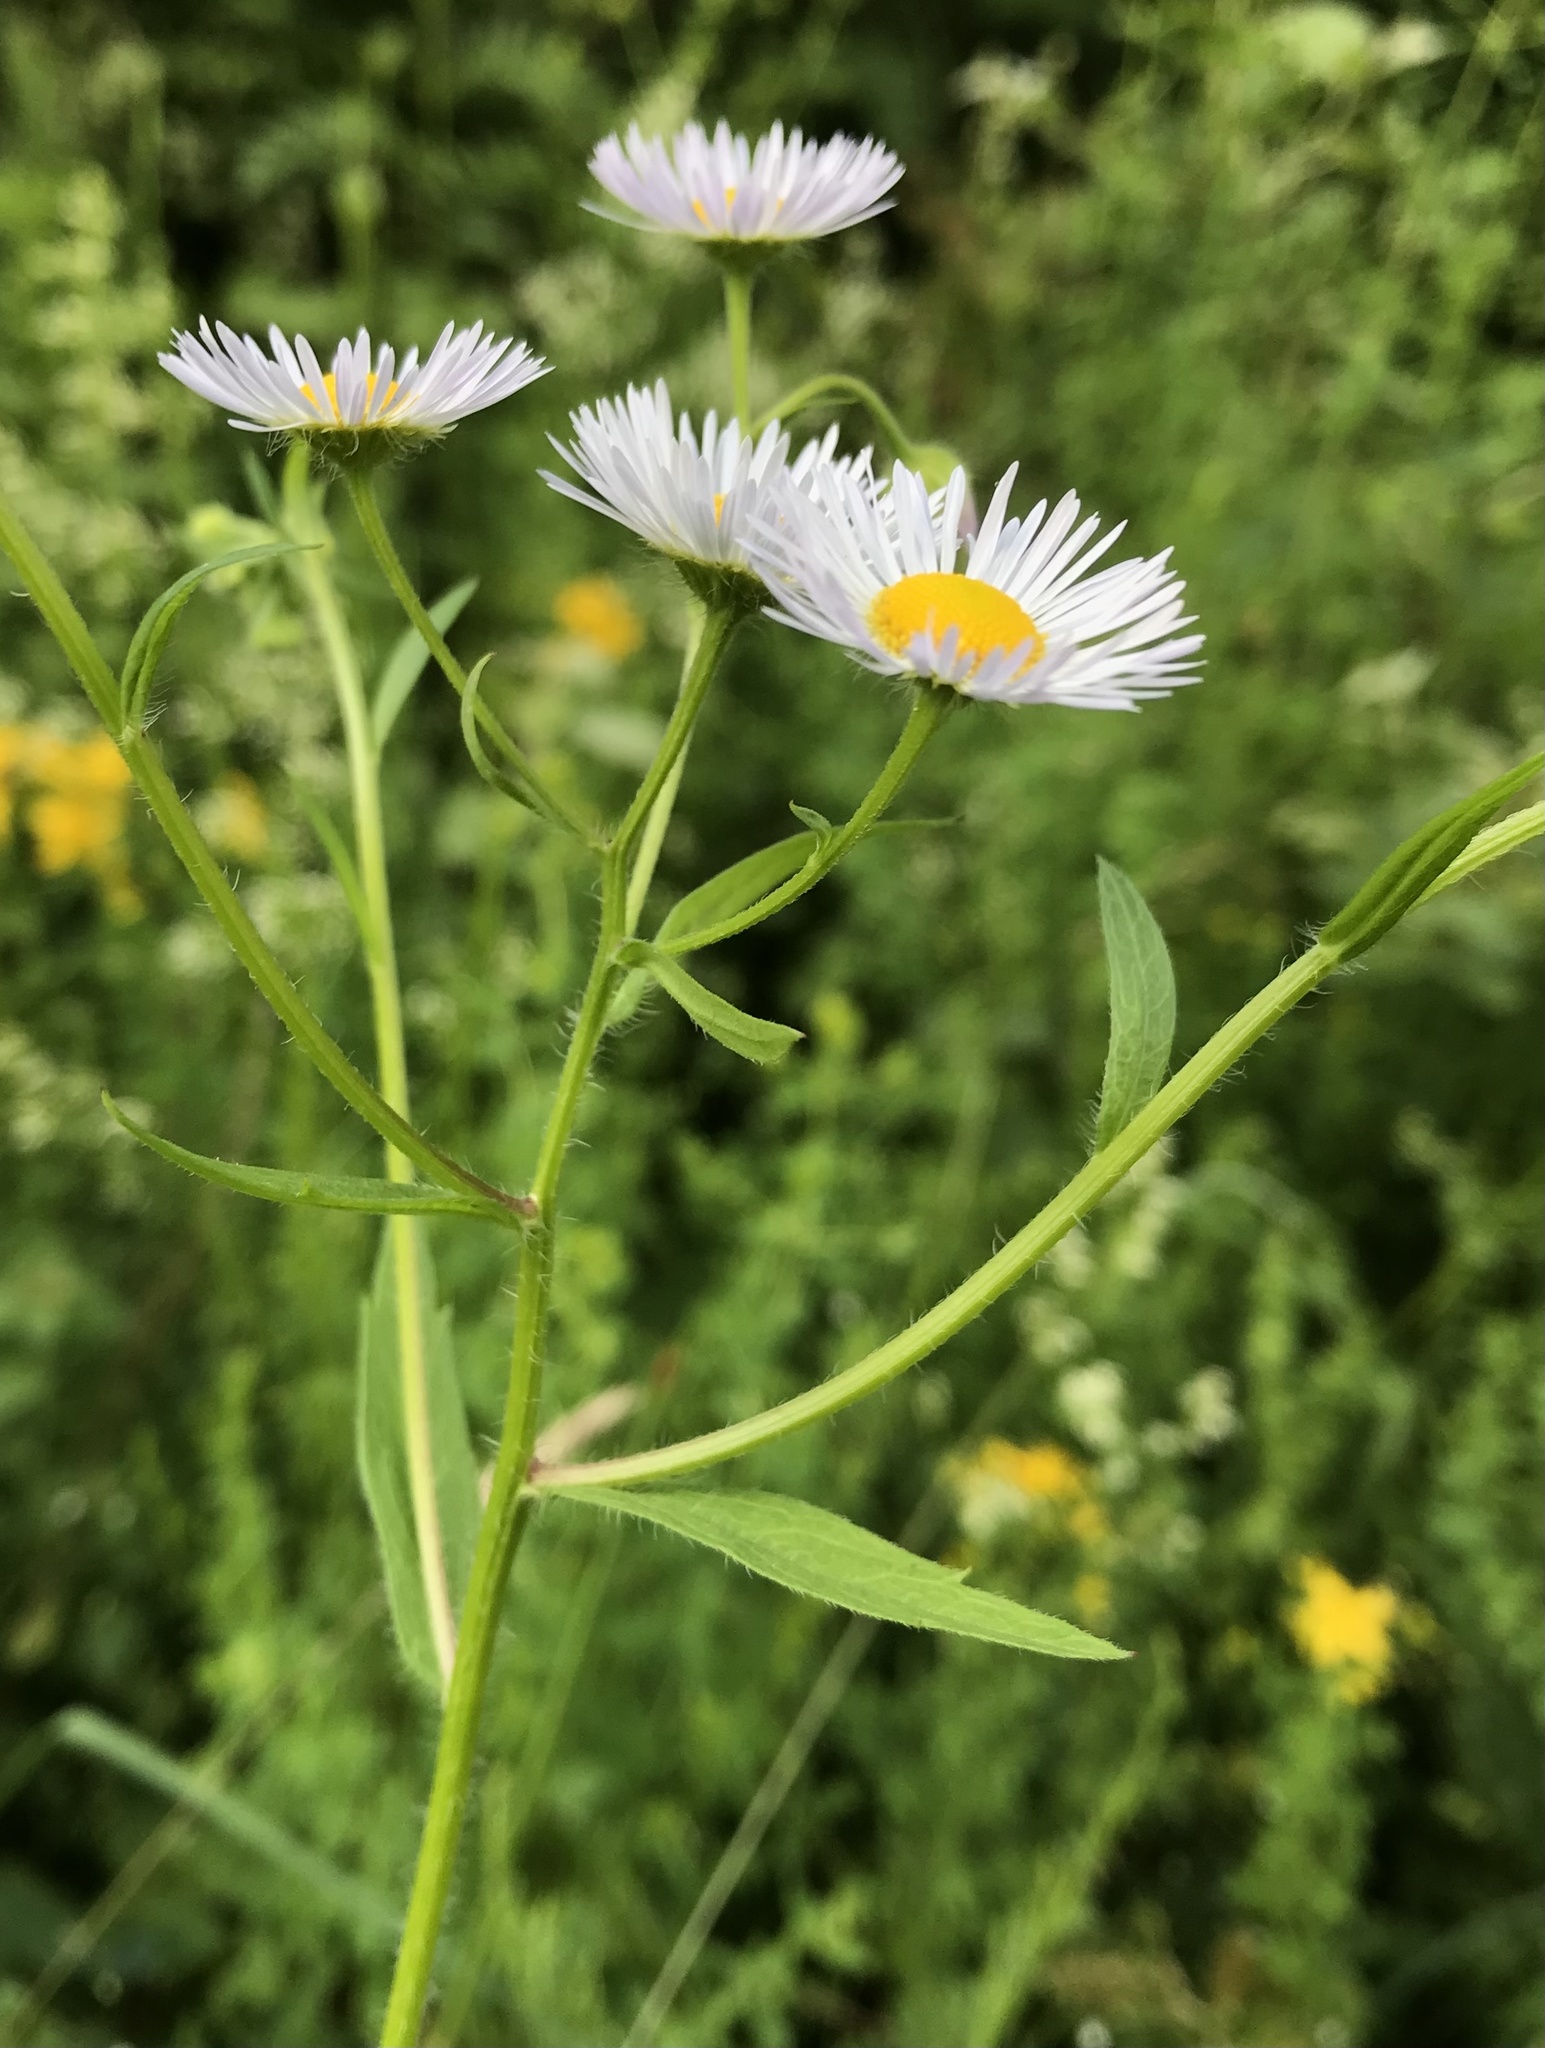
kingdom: Plantae
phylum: Tracheophyta
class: Magnoliopsida
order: Asterales
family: Asteraceae
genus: Erigeron
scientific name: Erigeron annuus
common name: Tall fleabane
